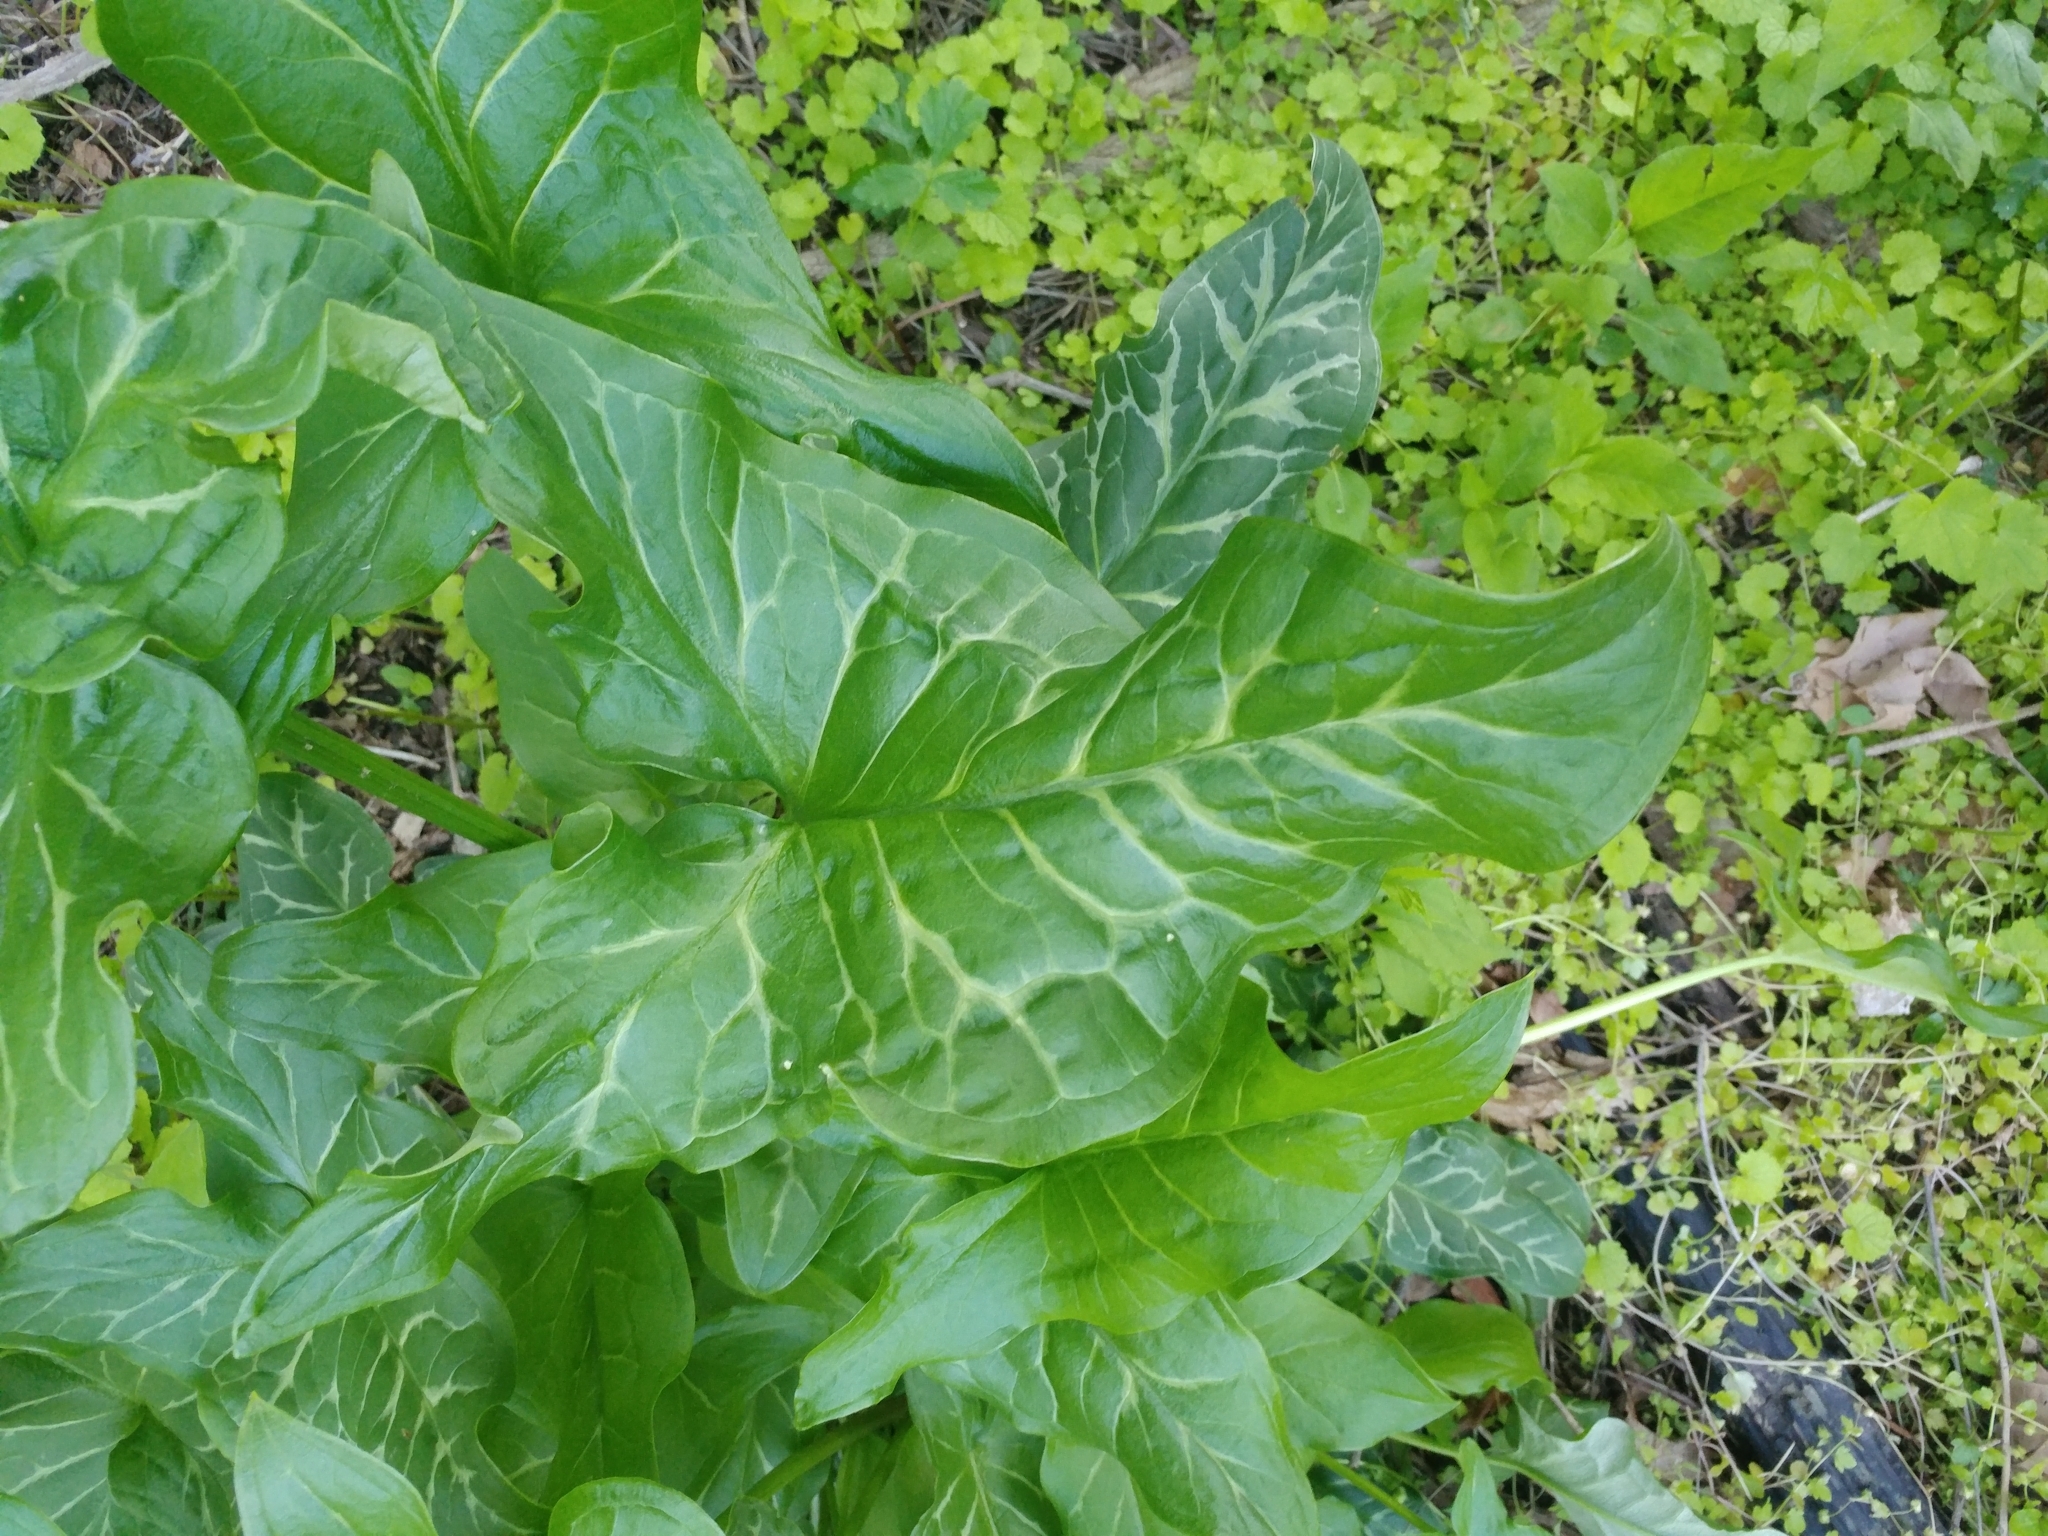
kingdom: Plantae
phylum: Tracheophyta
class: Liliopsida
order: Alismatales
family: Araceae
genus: Arum
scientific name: Arum italicum
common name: Italian lords-and-ladies
